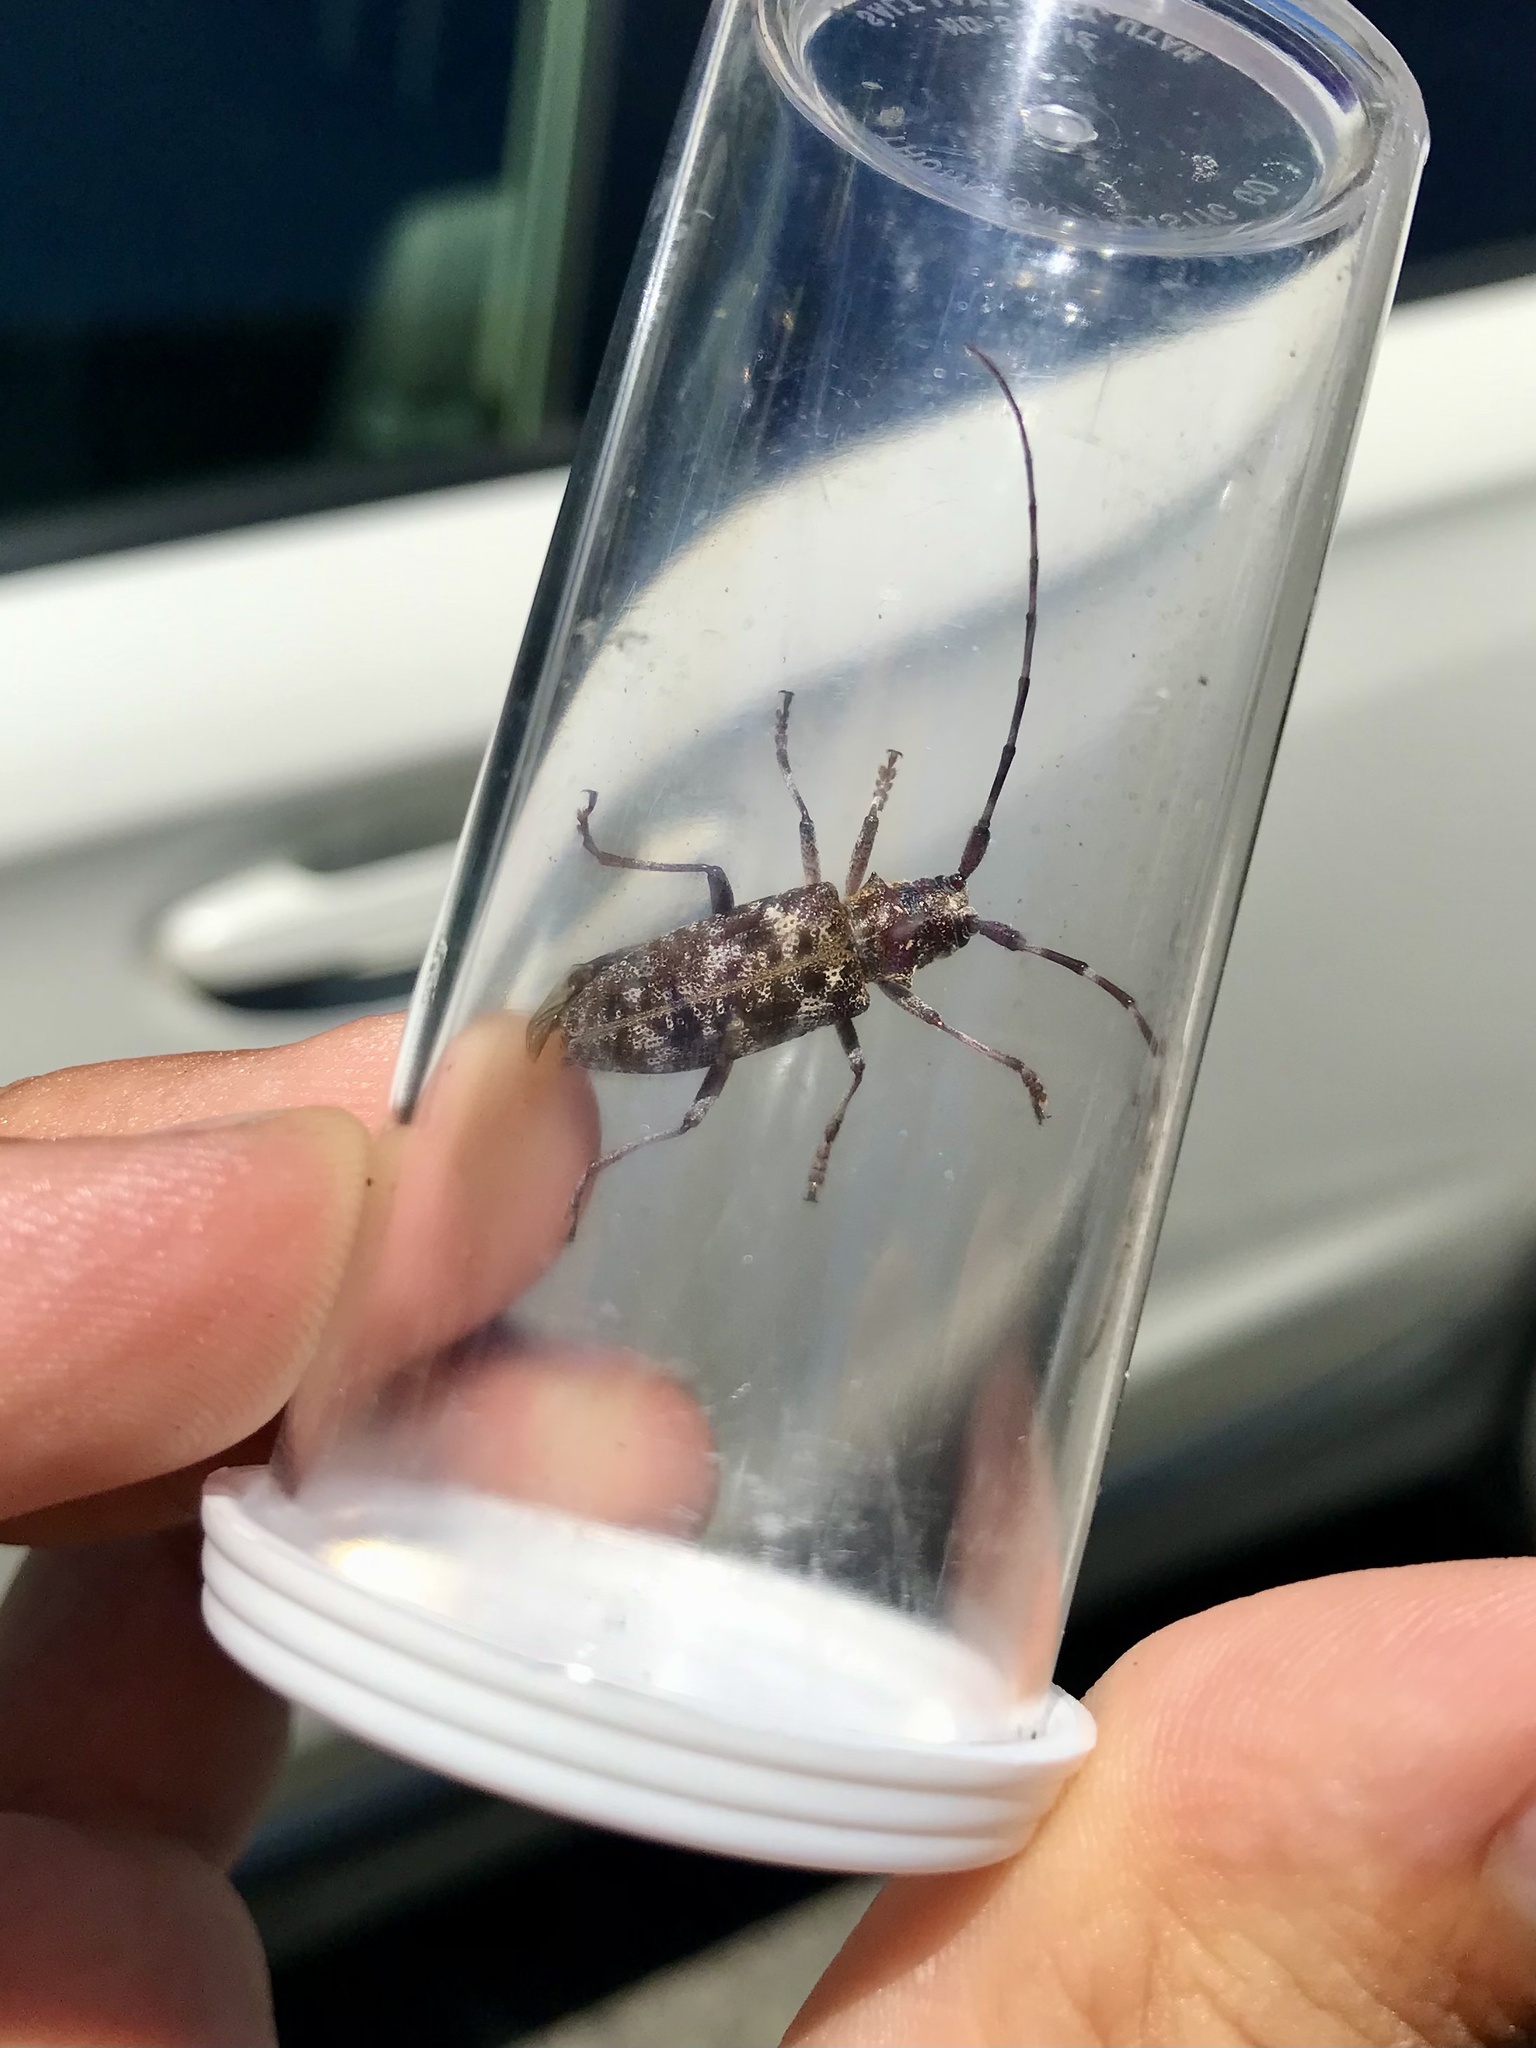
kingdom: Animalia
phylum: Arthropoda
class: Insecta
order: Coleoptera
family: Cerambycidae
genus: Monochamus
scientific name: Monochamus obtusus
